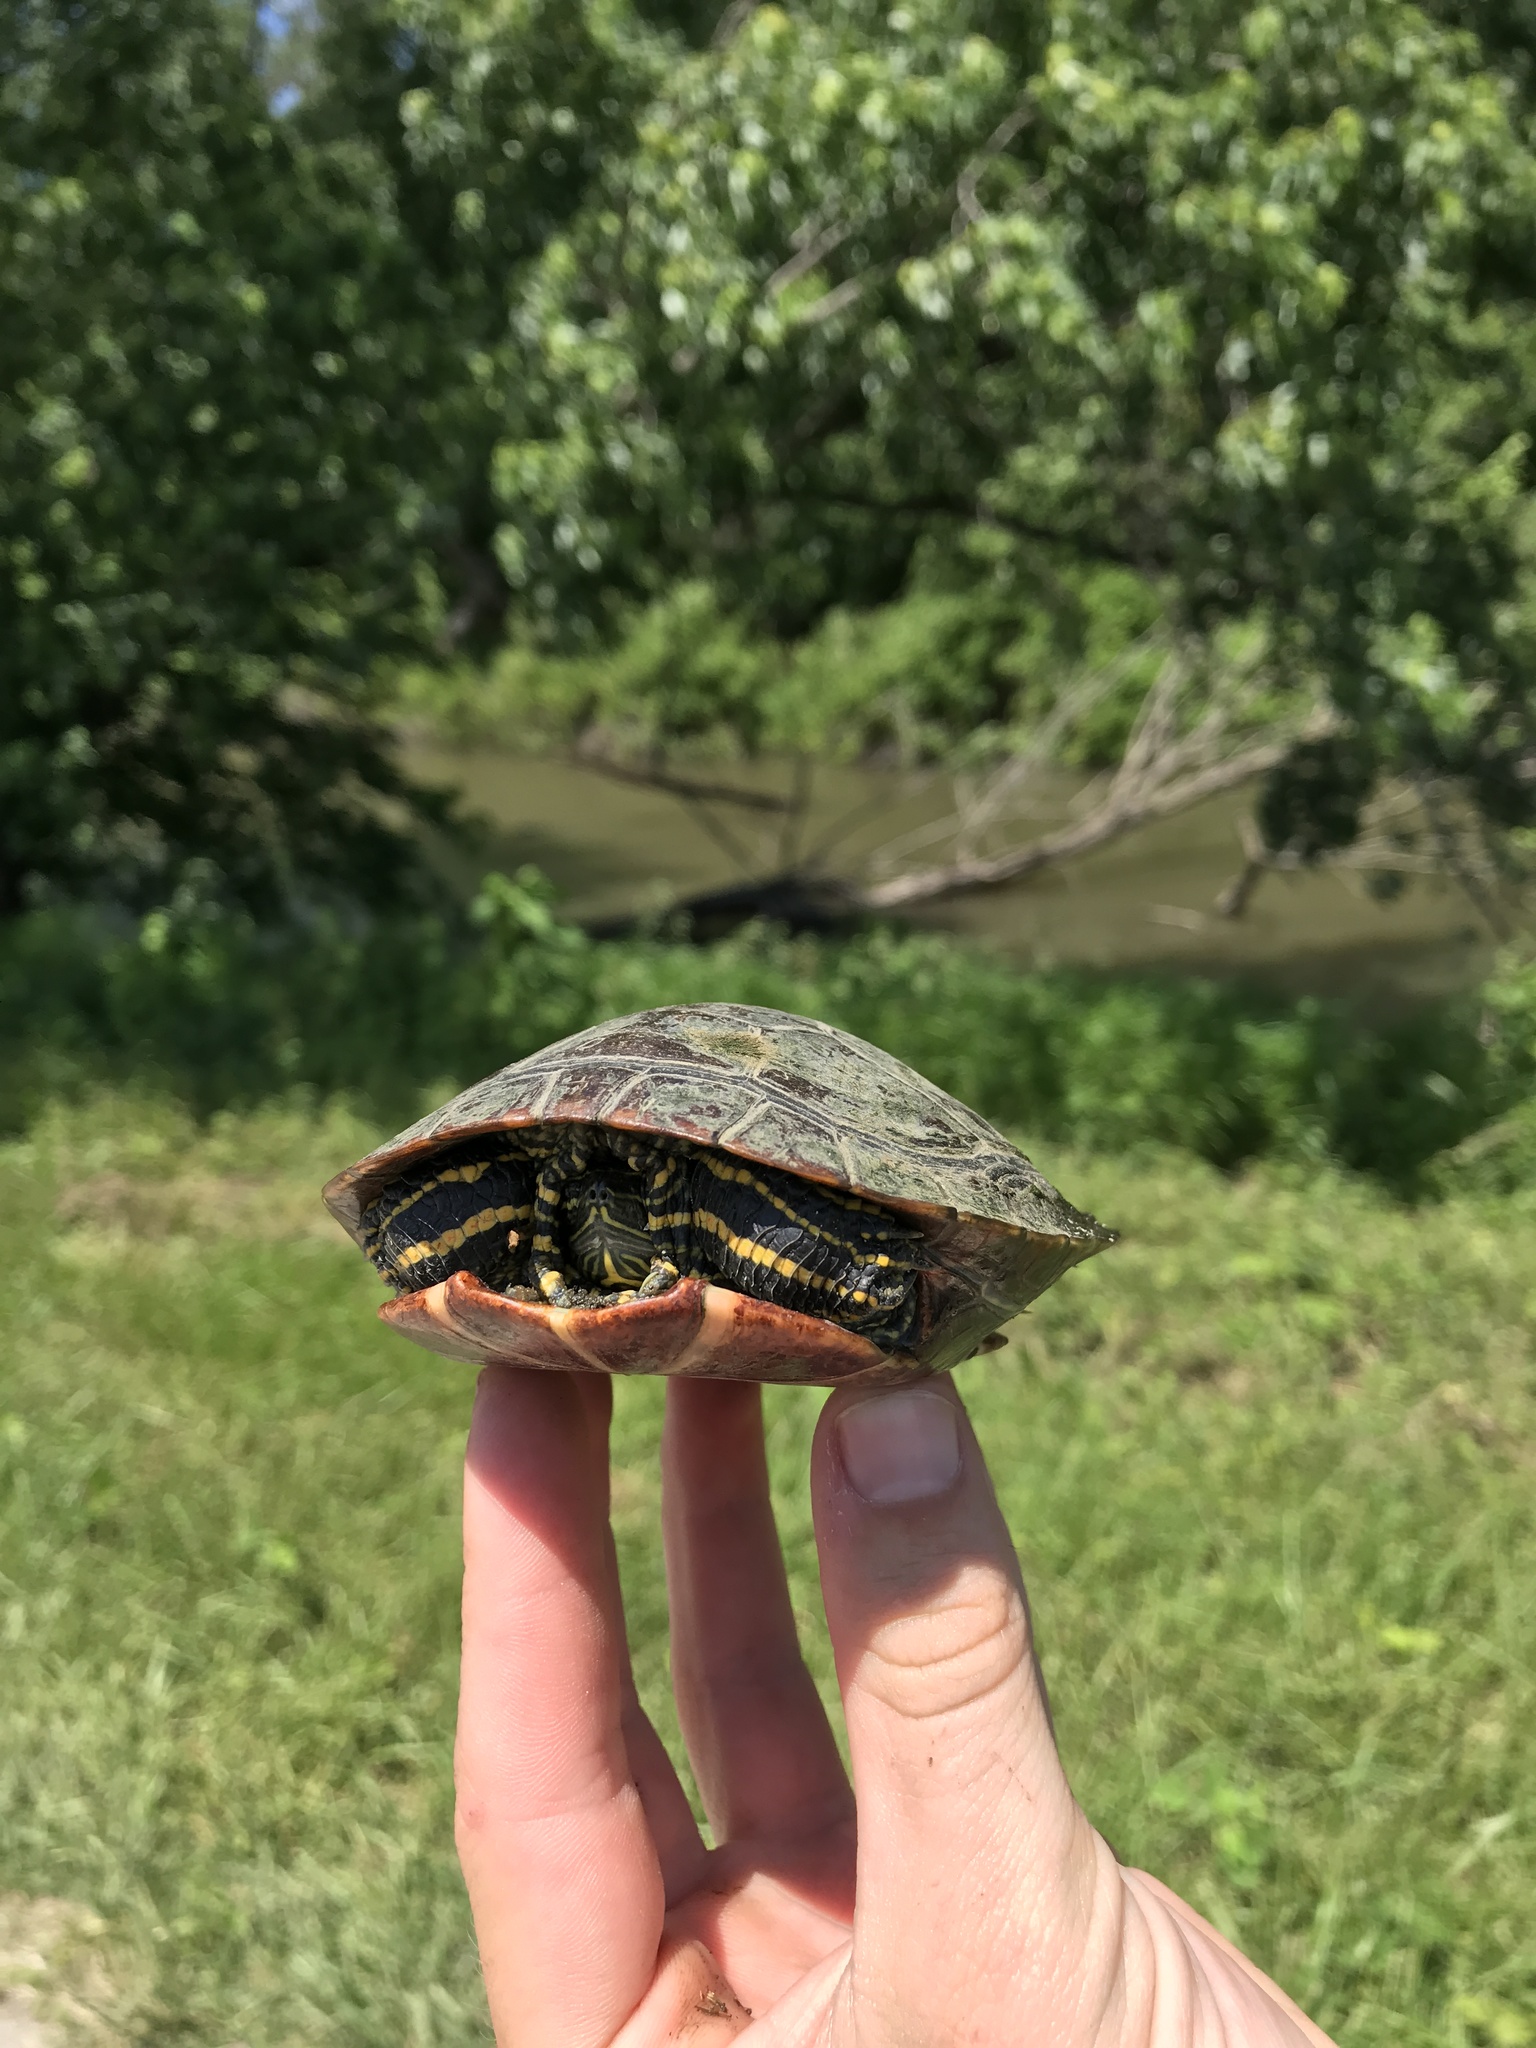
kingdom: Animalia
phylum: Chordata
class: Testudines
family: Emydidae
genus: Chrysemys
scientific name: Chrysemys picta
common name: Painted turtle
